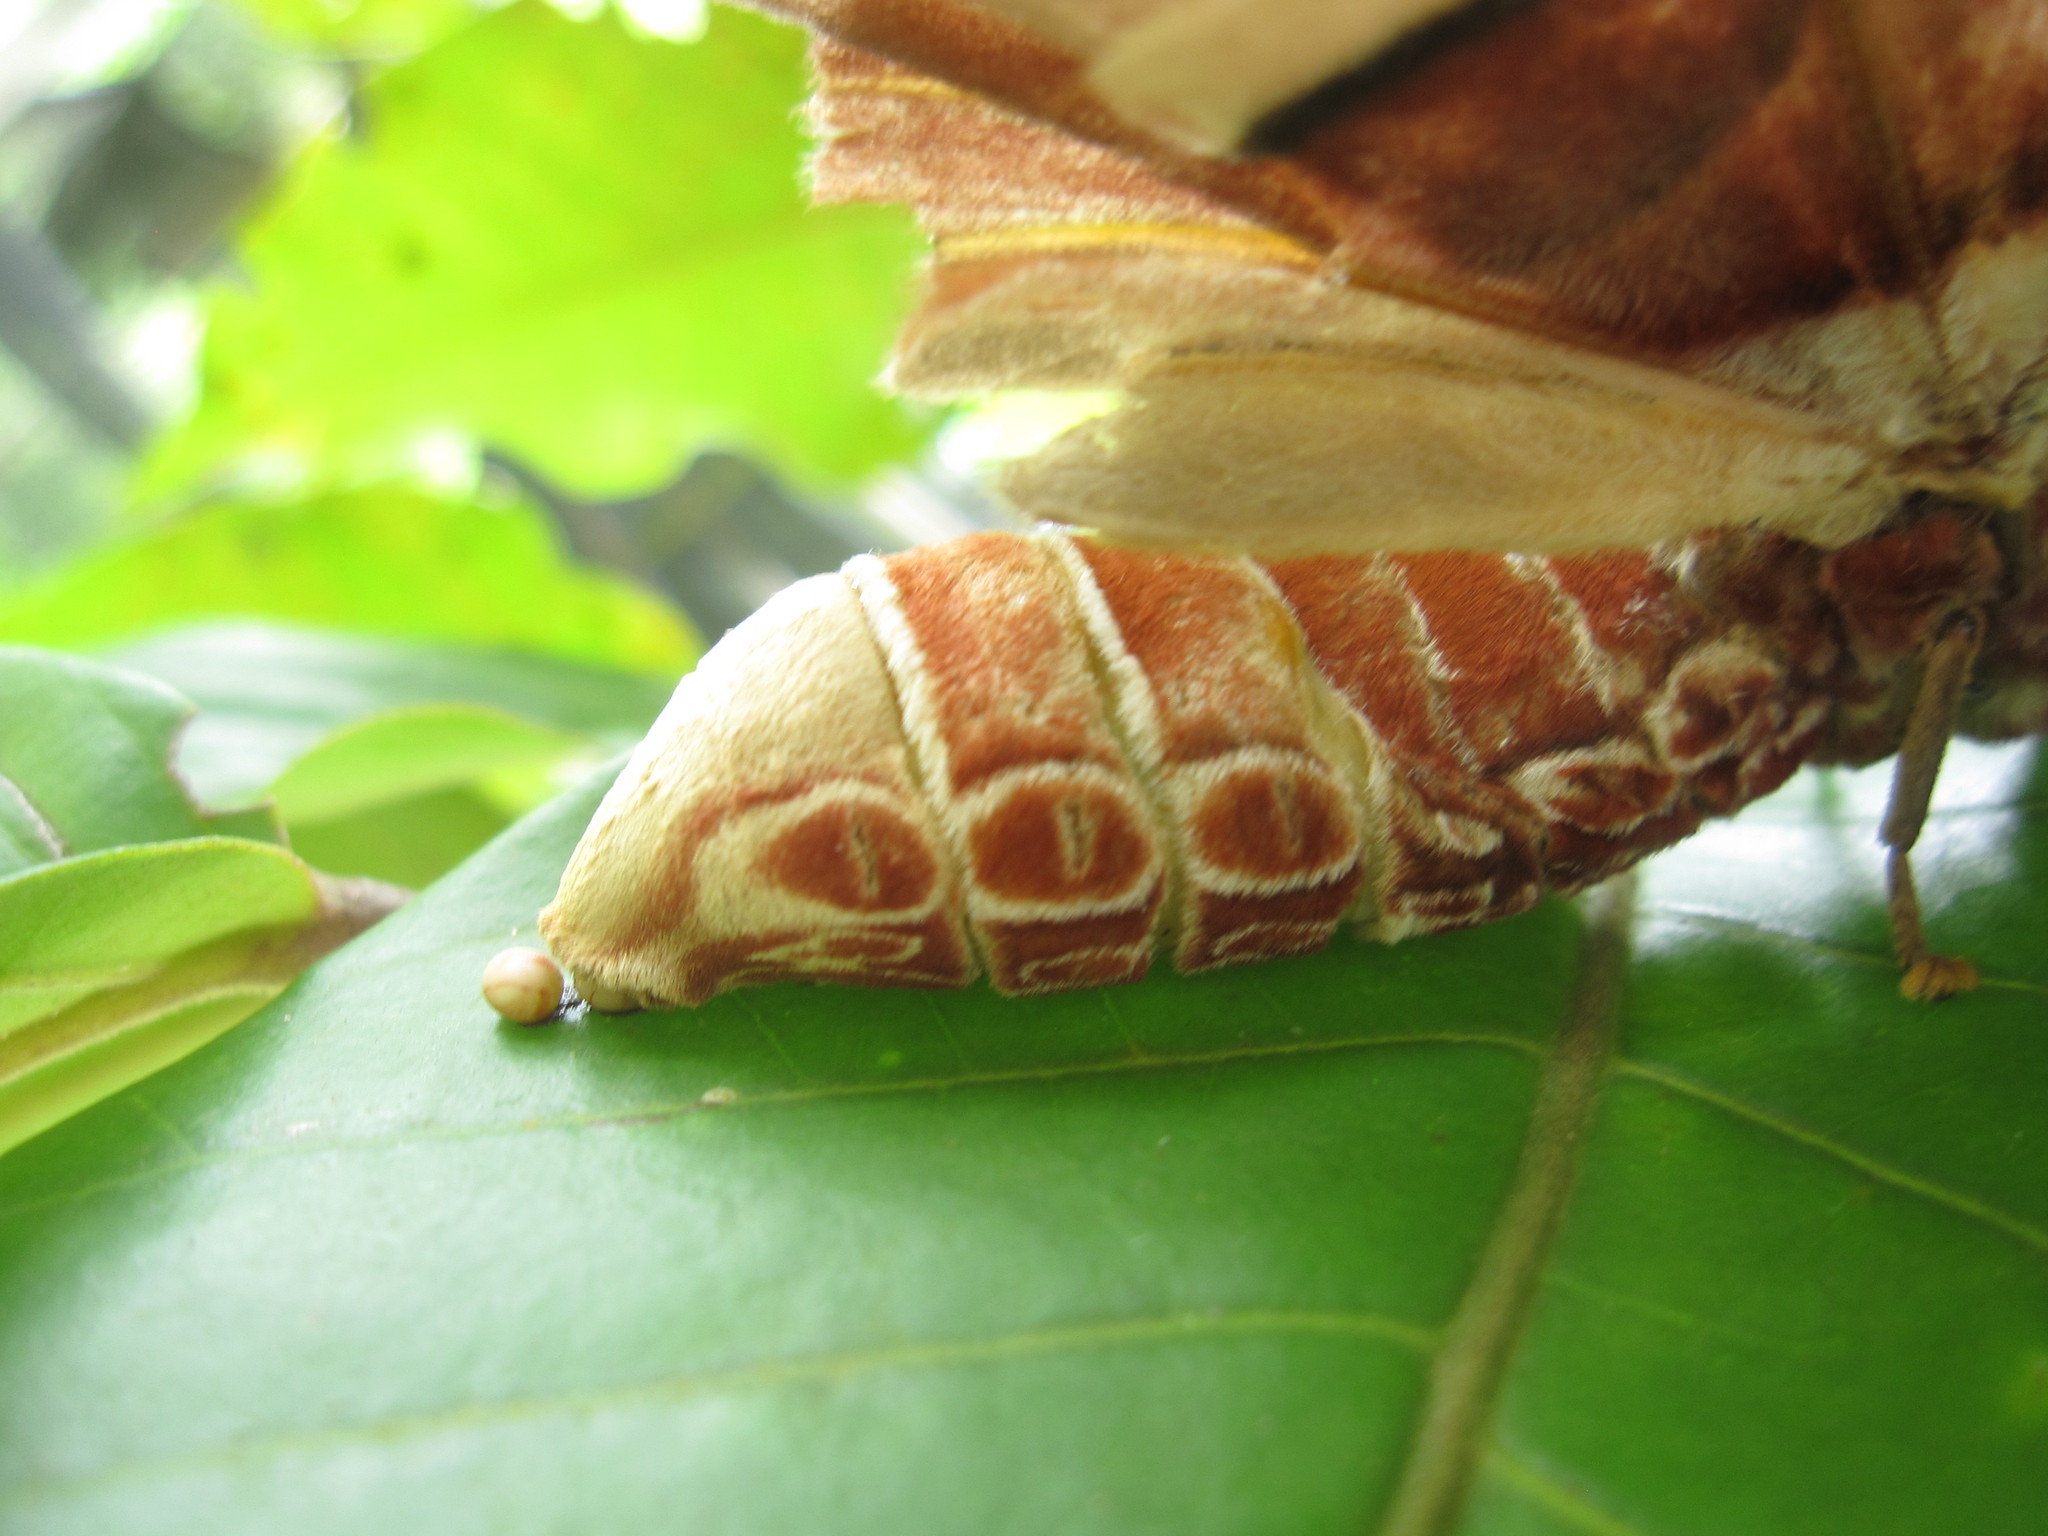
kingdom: Animalia
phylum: Arthropoda
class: Insecta
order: Lepidoptera
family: Saturniidae
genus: Attacus
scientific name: Attacus atlas
